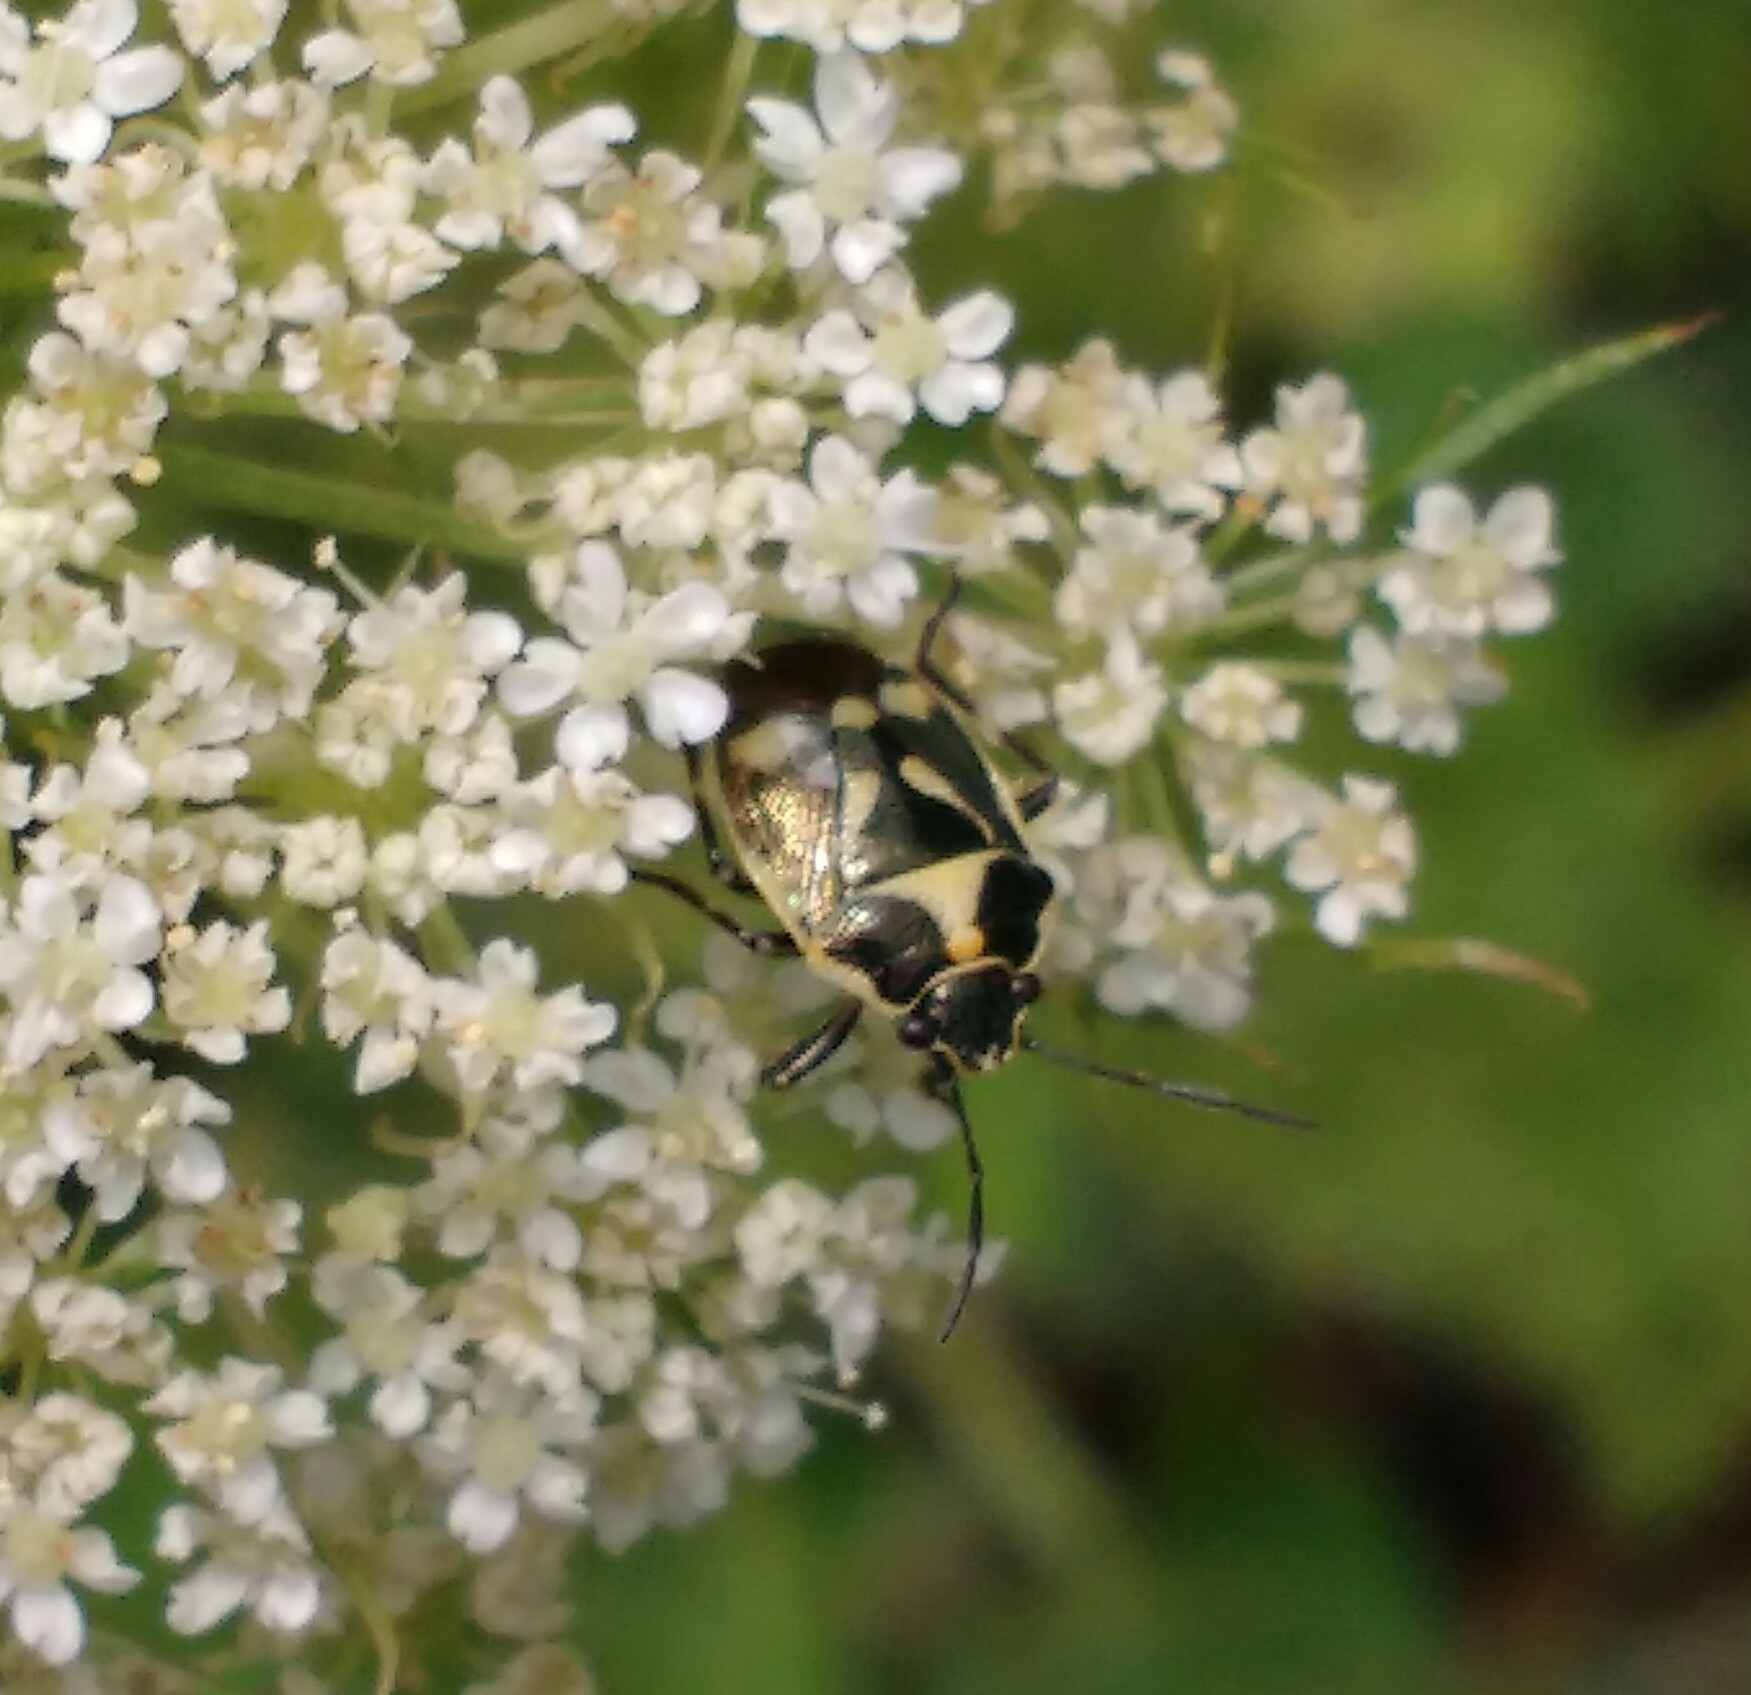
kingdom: Animalia
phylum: Arthropoda
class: Insecta
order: Hemiptera
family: Pentatomidae
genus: Eurydema
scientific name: Eurydema oleracea
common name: Cabbage bug
